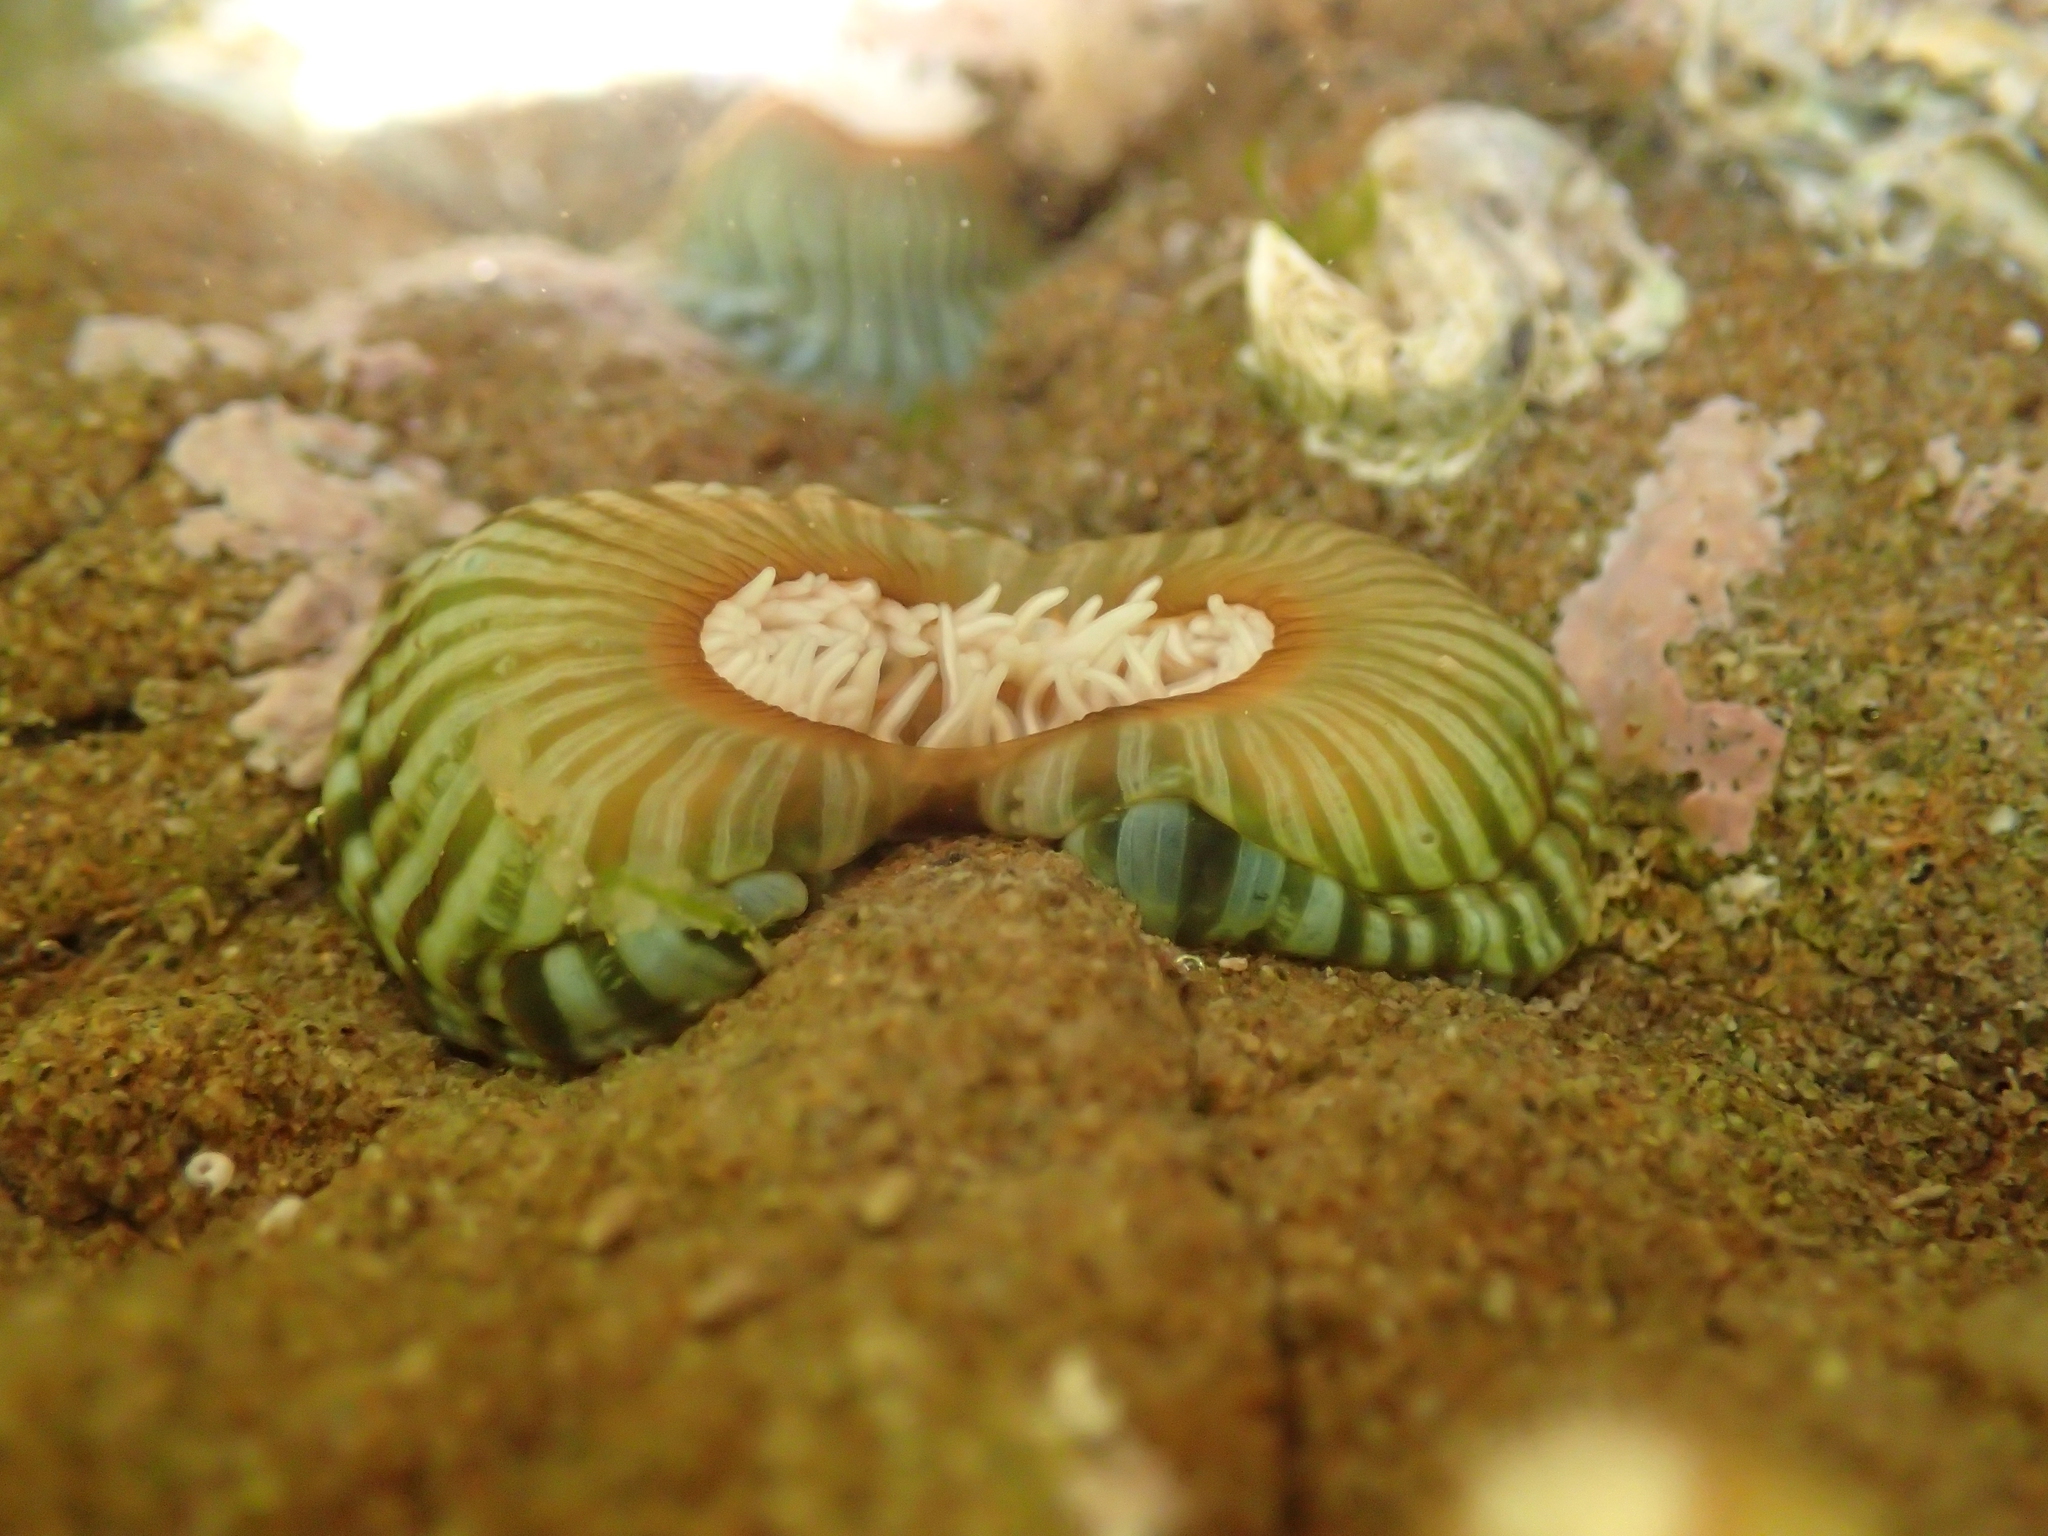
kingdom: Animalia
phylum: Cnidaria
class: Anthozoa
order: Actiniaria
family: Diadumenidae
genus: Diadumene
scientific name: Diadumene neozelanica
